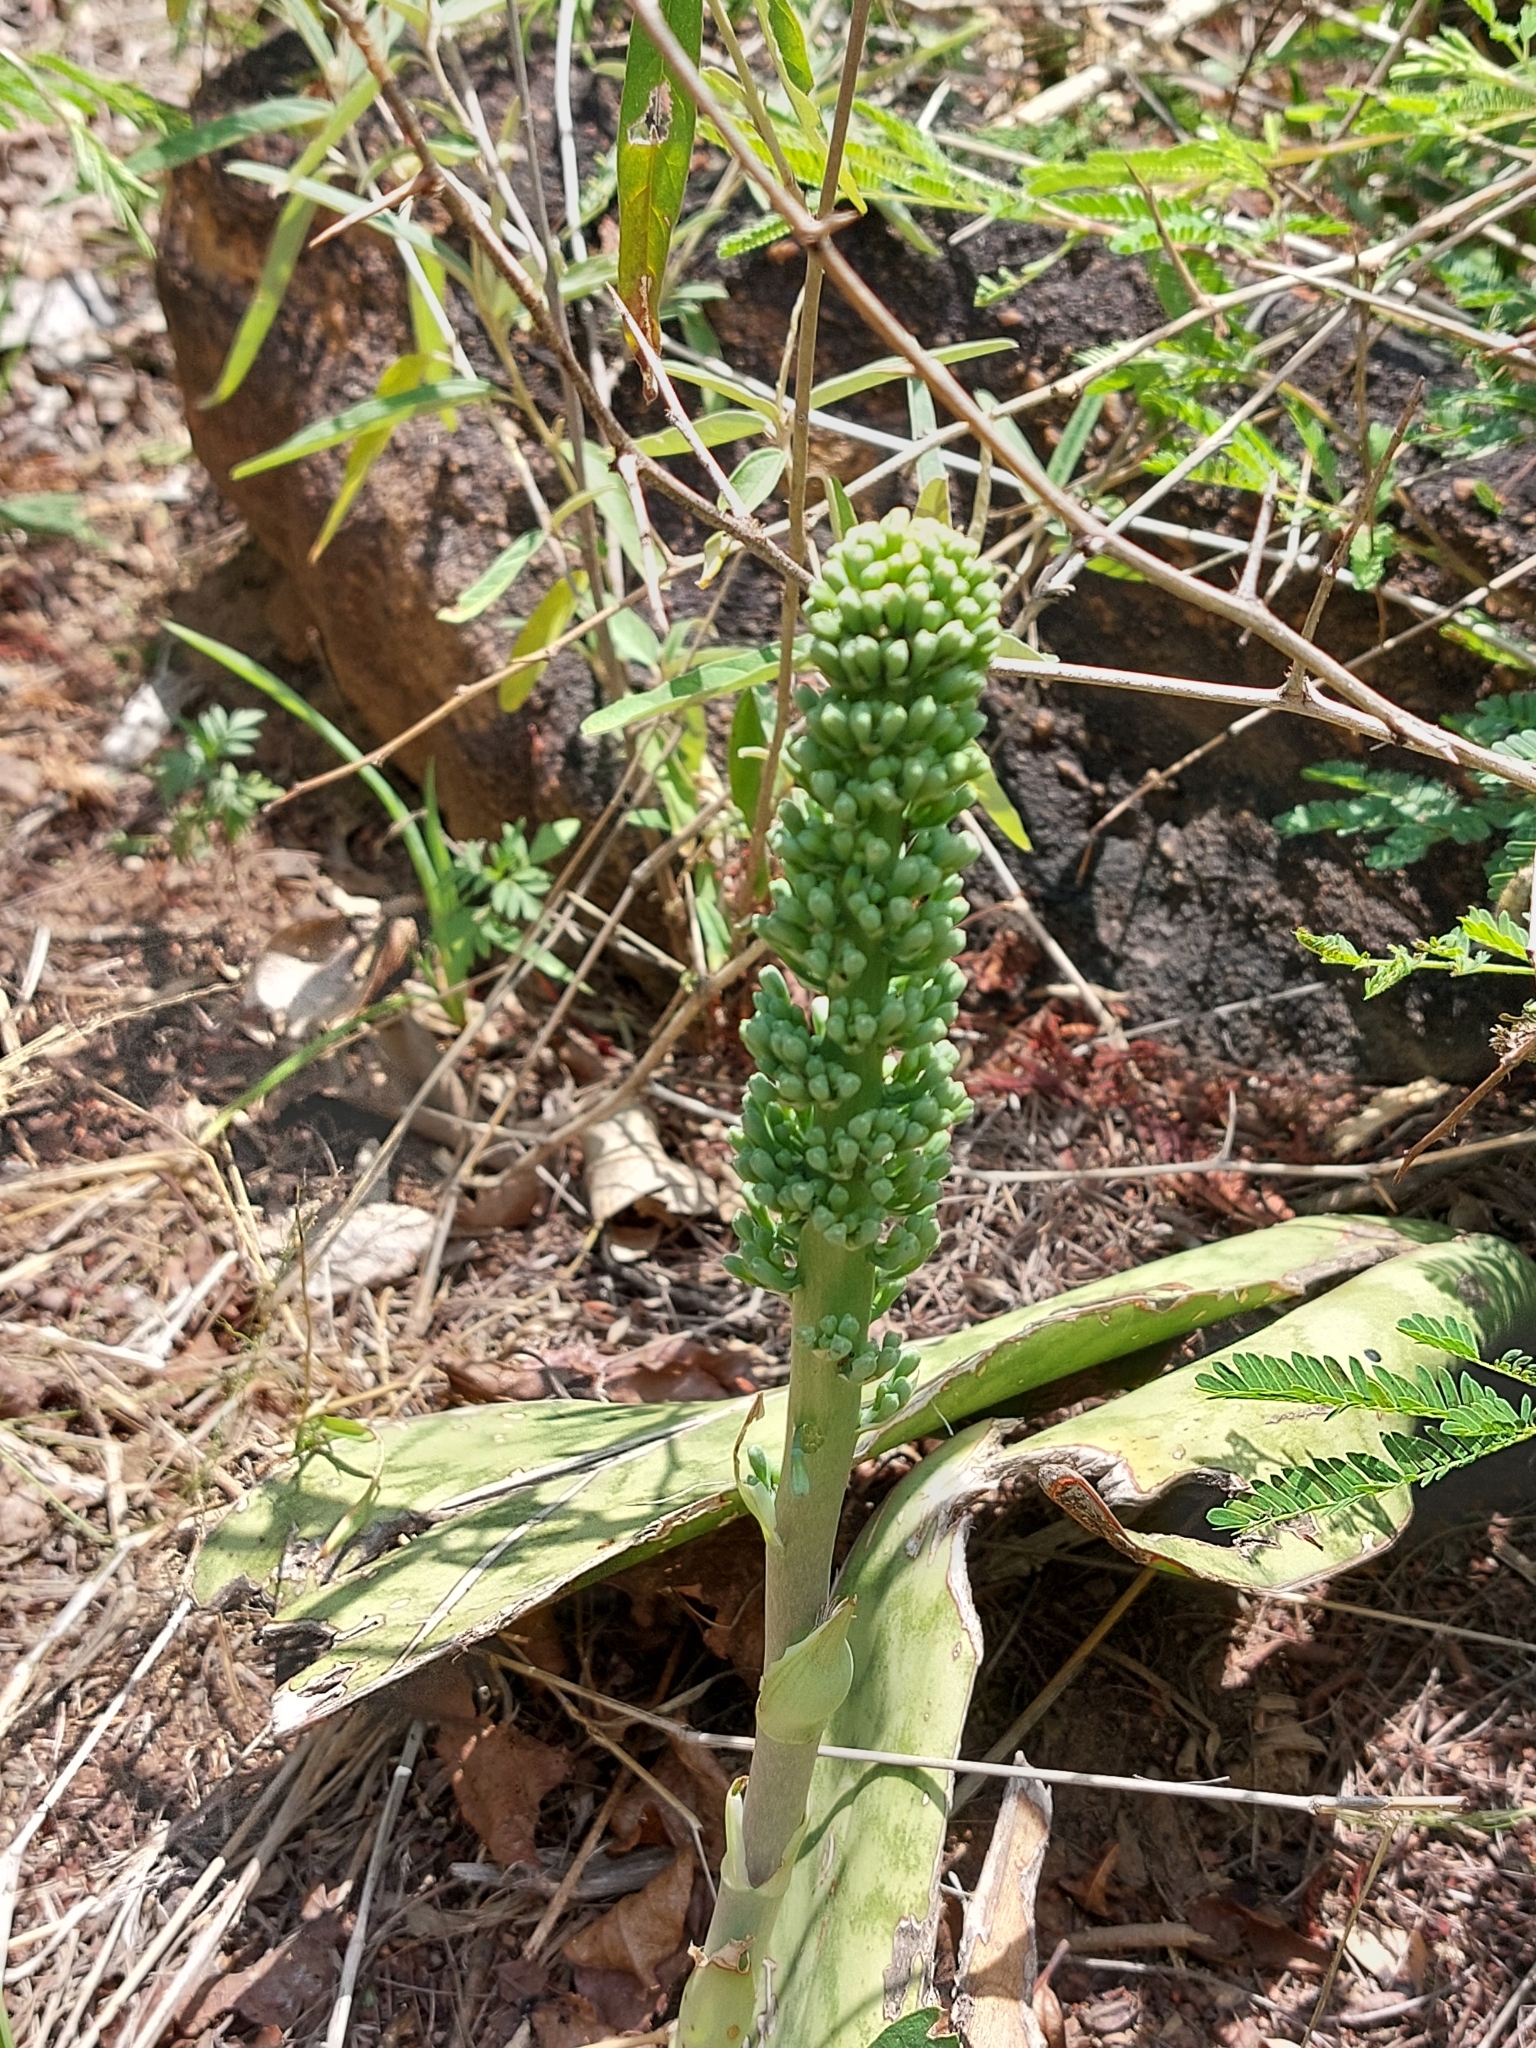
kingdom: Plantae
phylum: Tracheophyta
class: Liliopsida
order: Asparagales
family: Asparagaceae
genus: Dracaena
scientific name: Dracaena hyacinthoides
